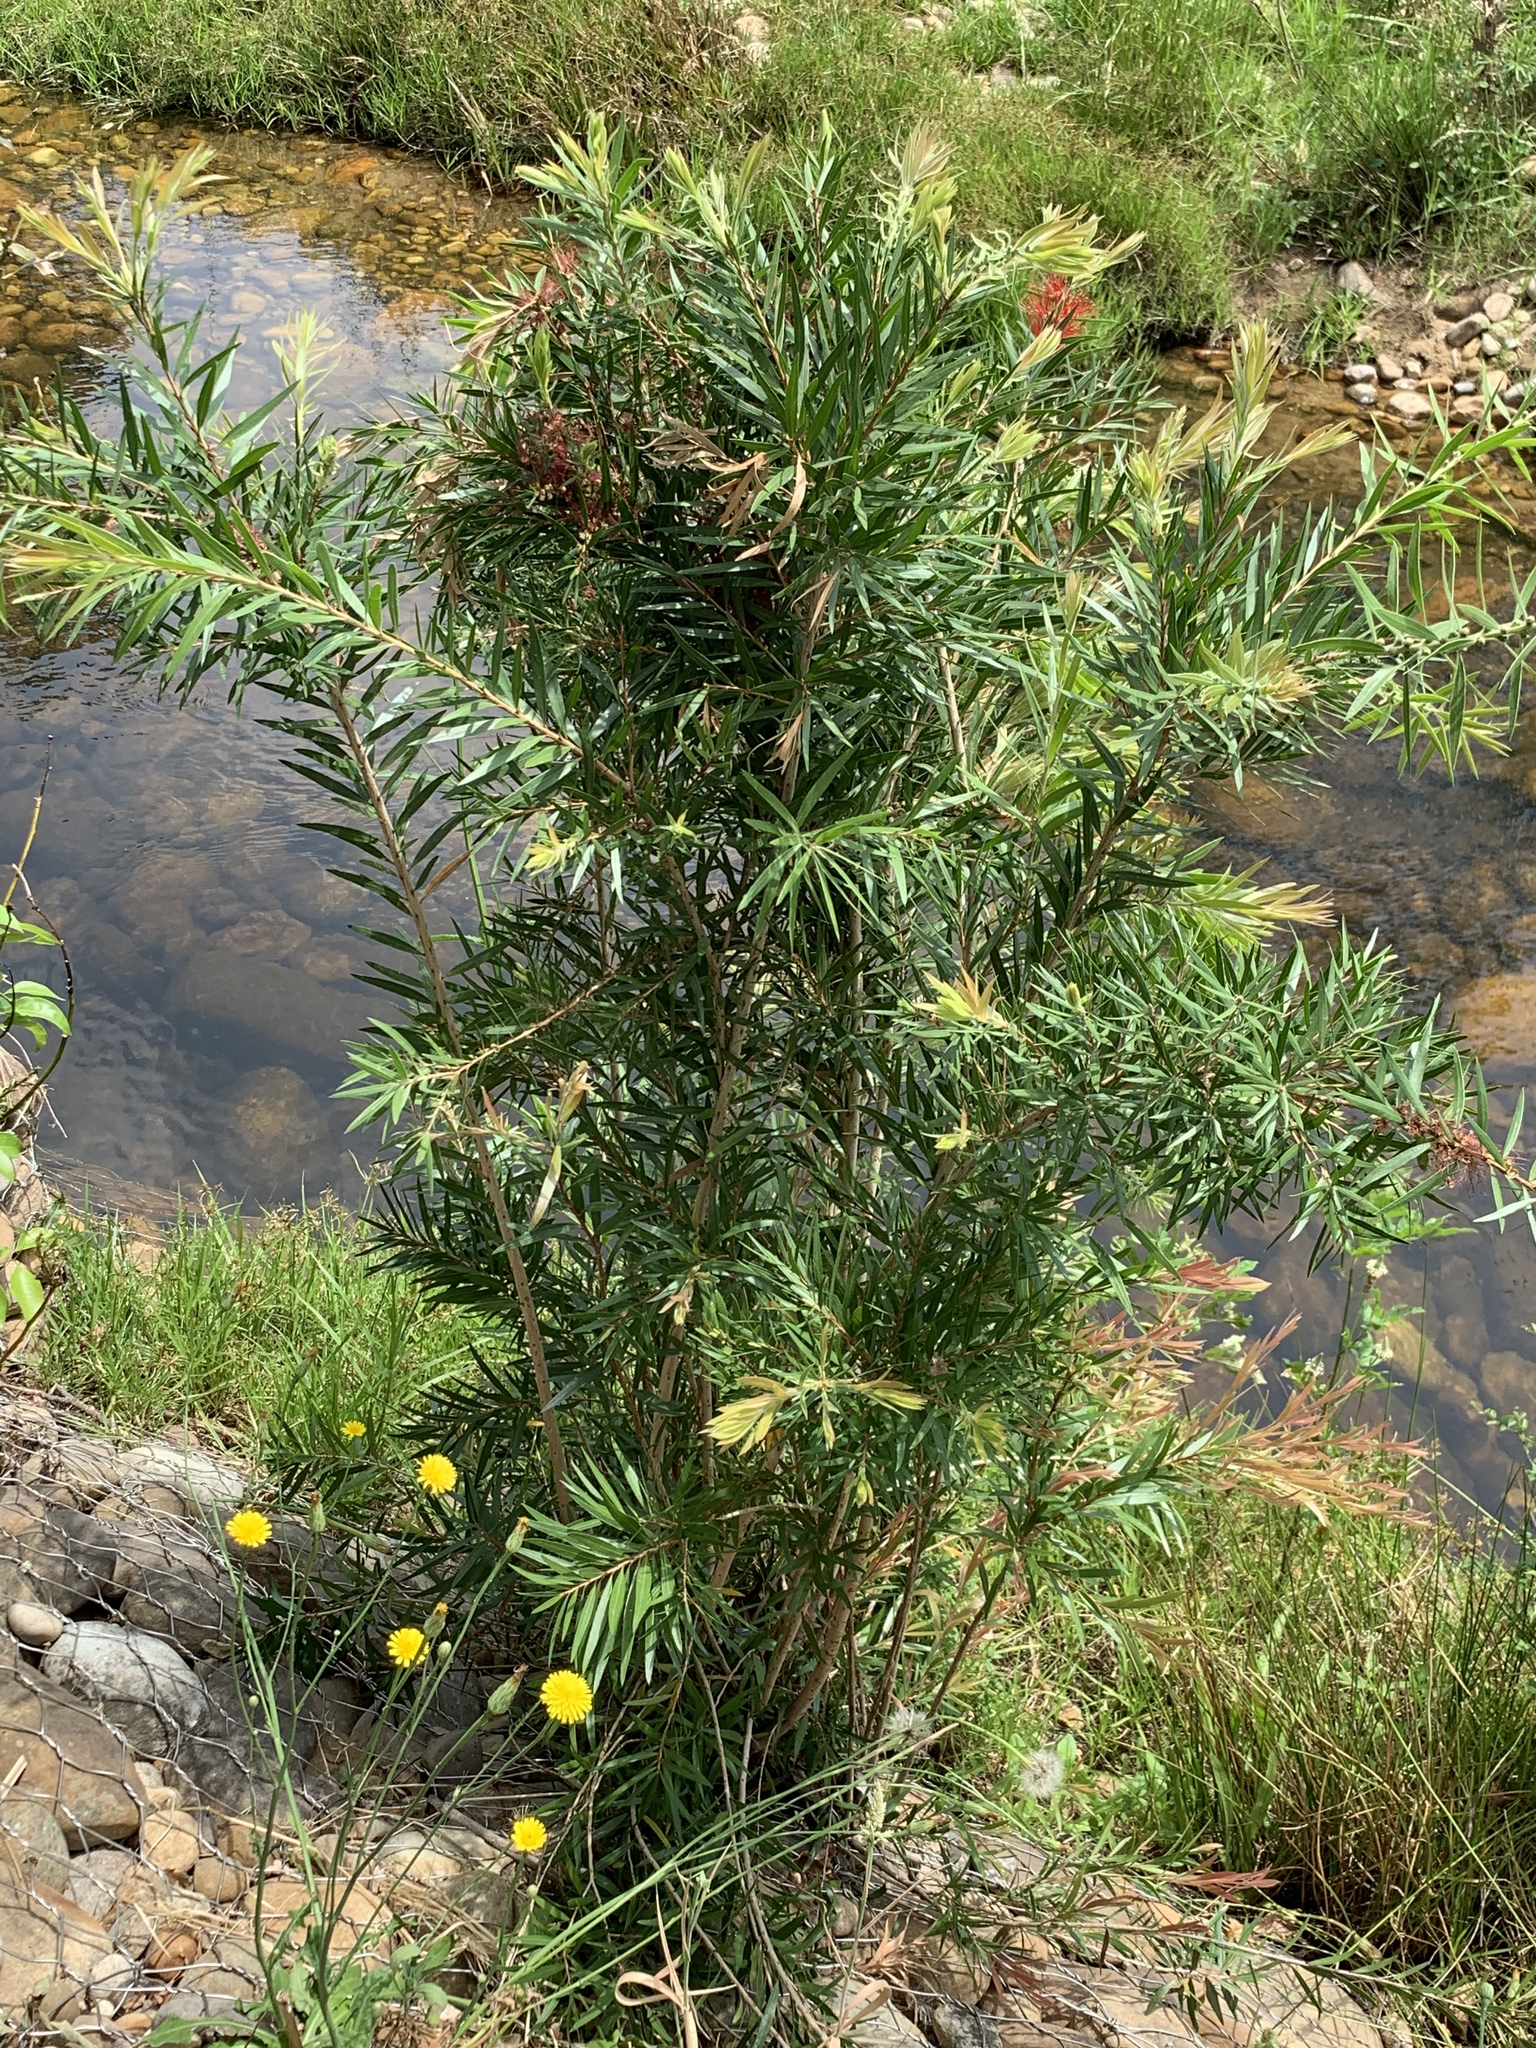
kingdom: Plantae
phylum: Tracheophyta
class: Magnoliopsida
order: Myrtales
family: Myrtaceae
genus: Callistemon
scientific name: Callistemon viminalis
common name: Drooping bottlebrush
